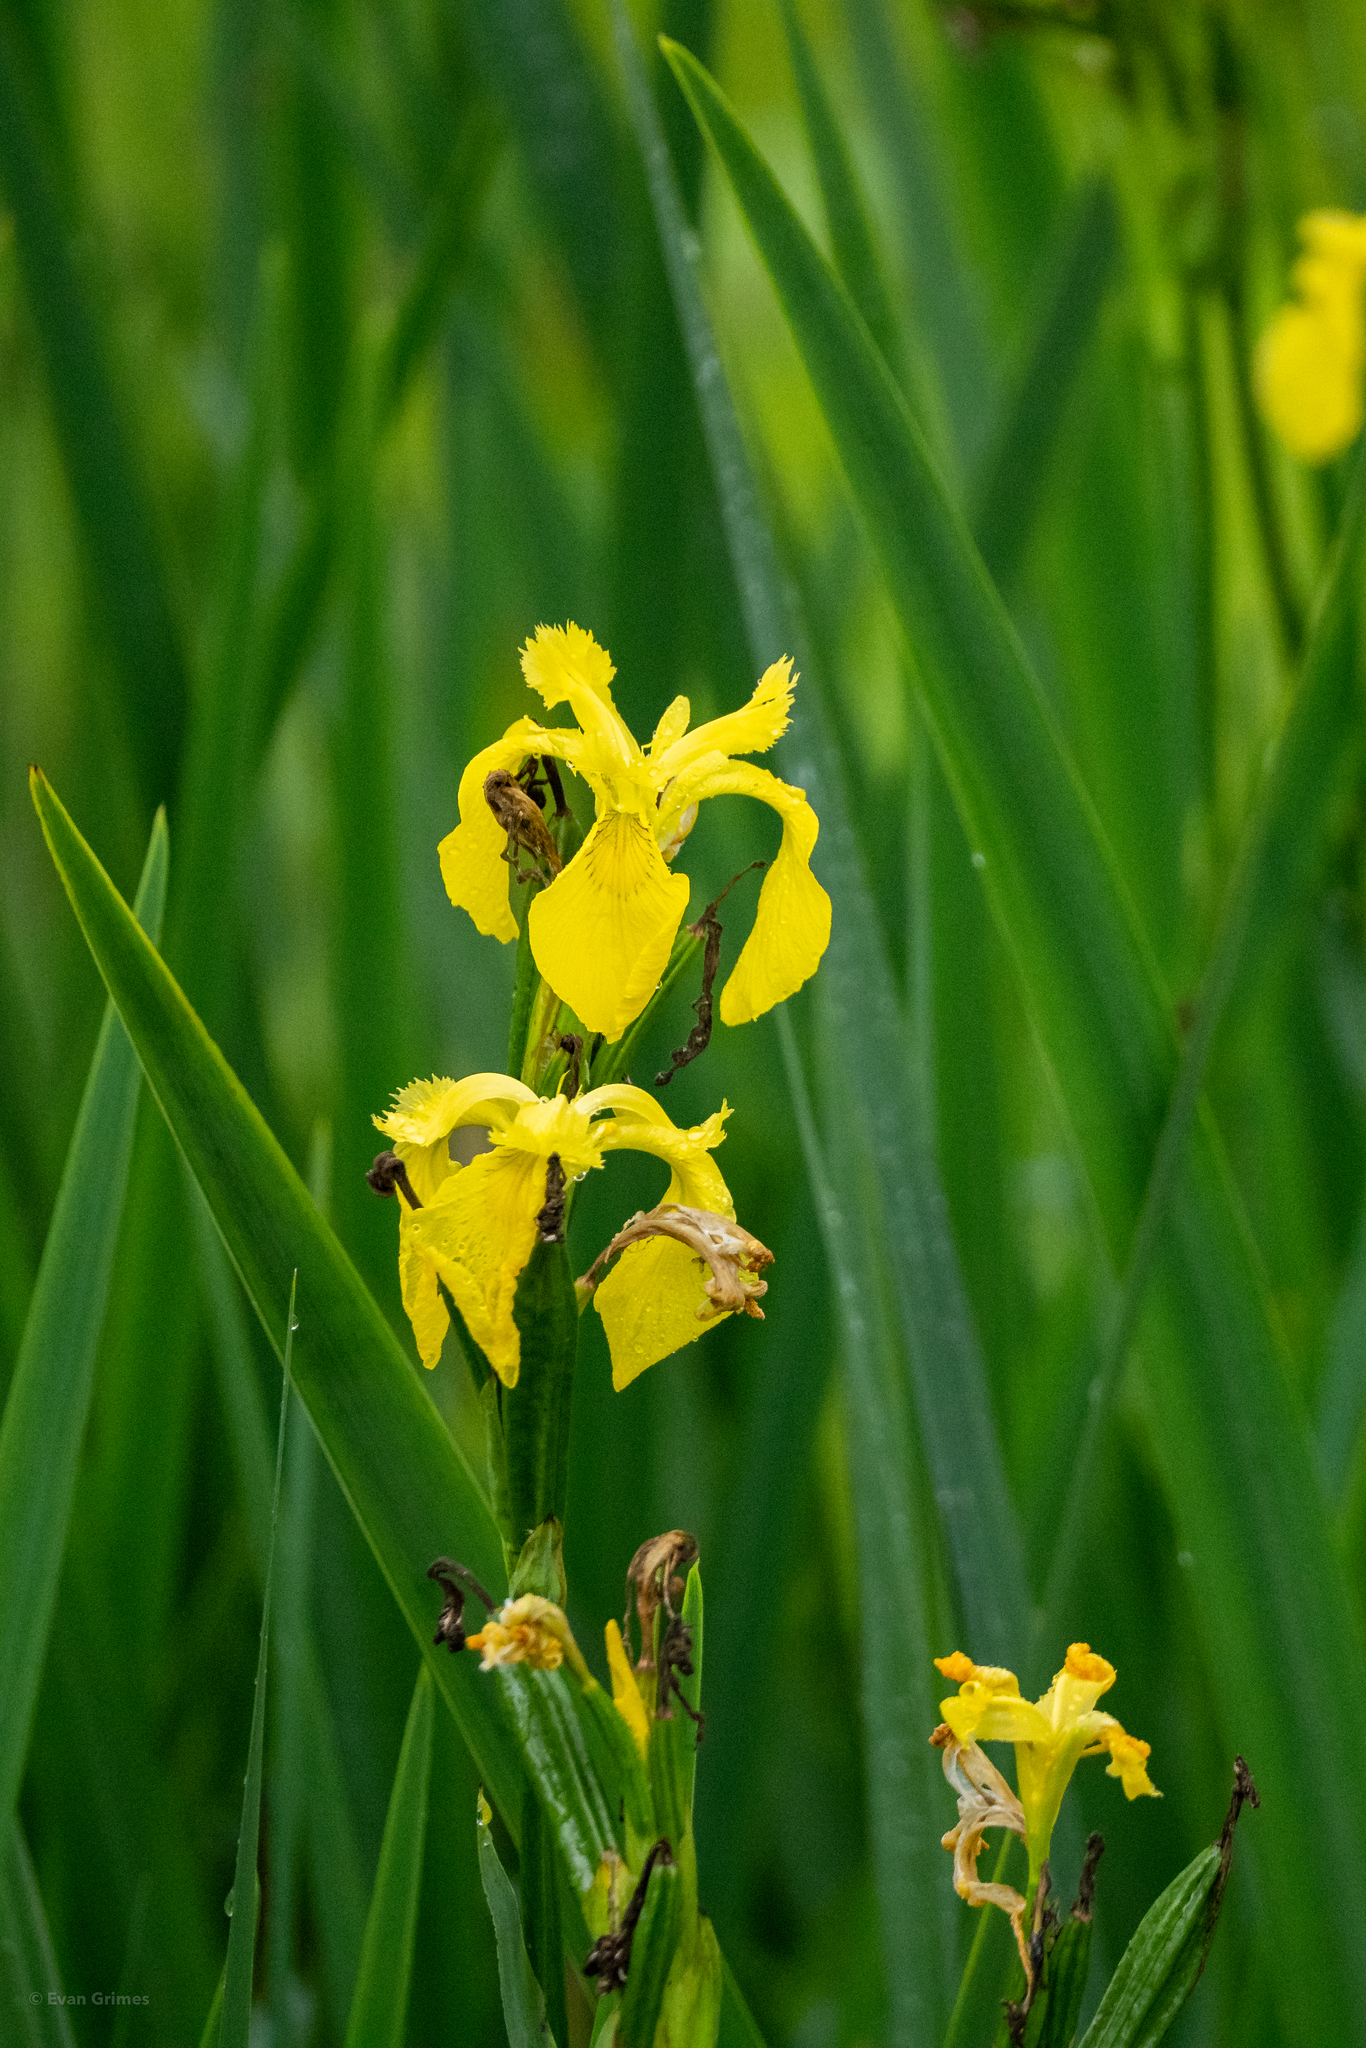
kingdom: Plantae
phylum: Tracheophyta
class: Liliopsida
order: Asparagales
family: Iridaceae
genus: Iris
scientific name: Iris pseudacorus
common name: Yellow flag
